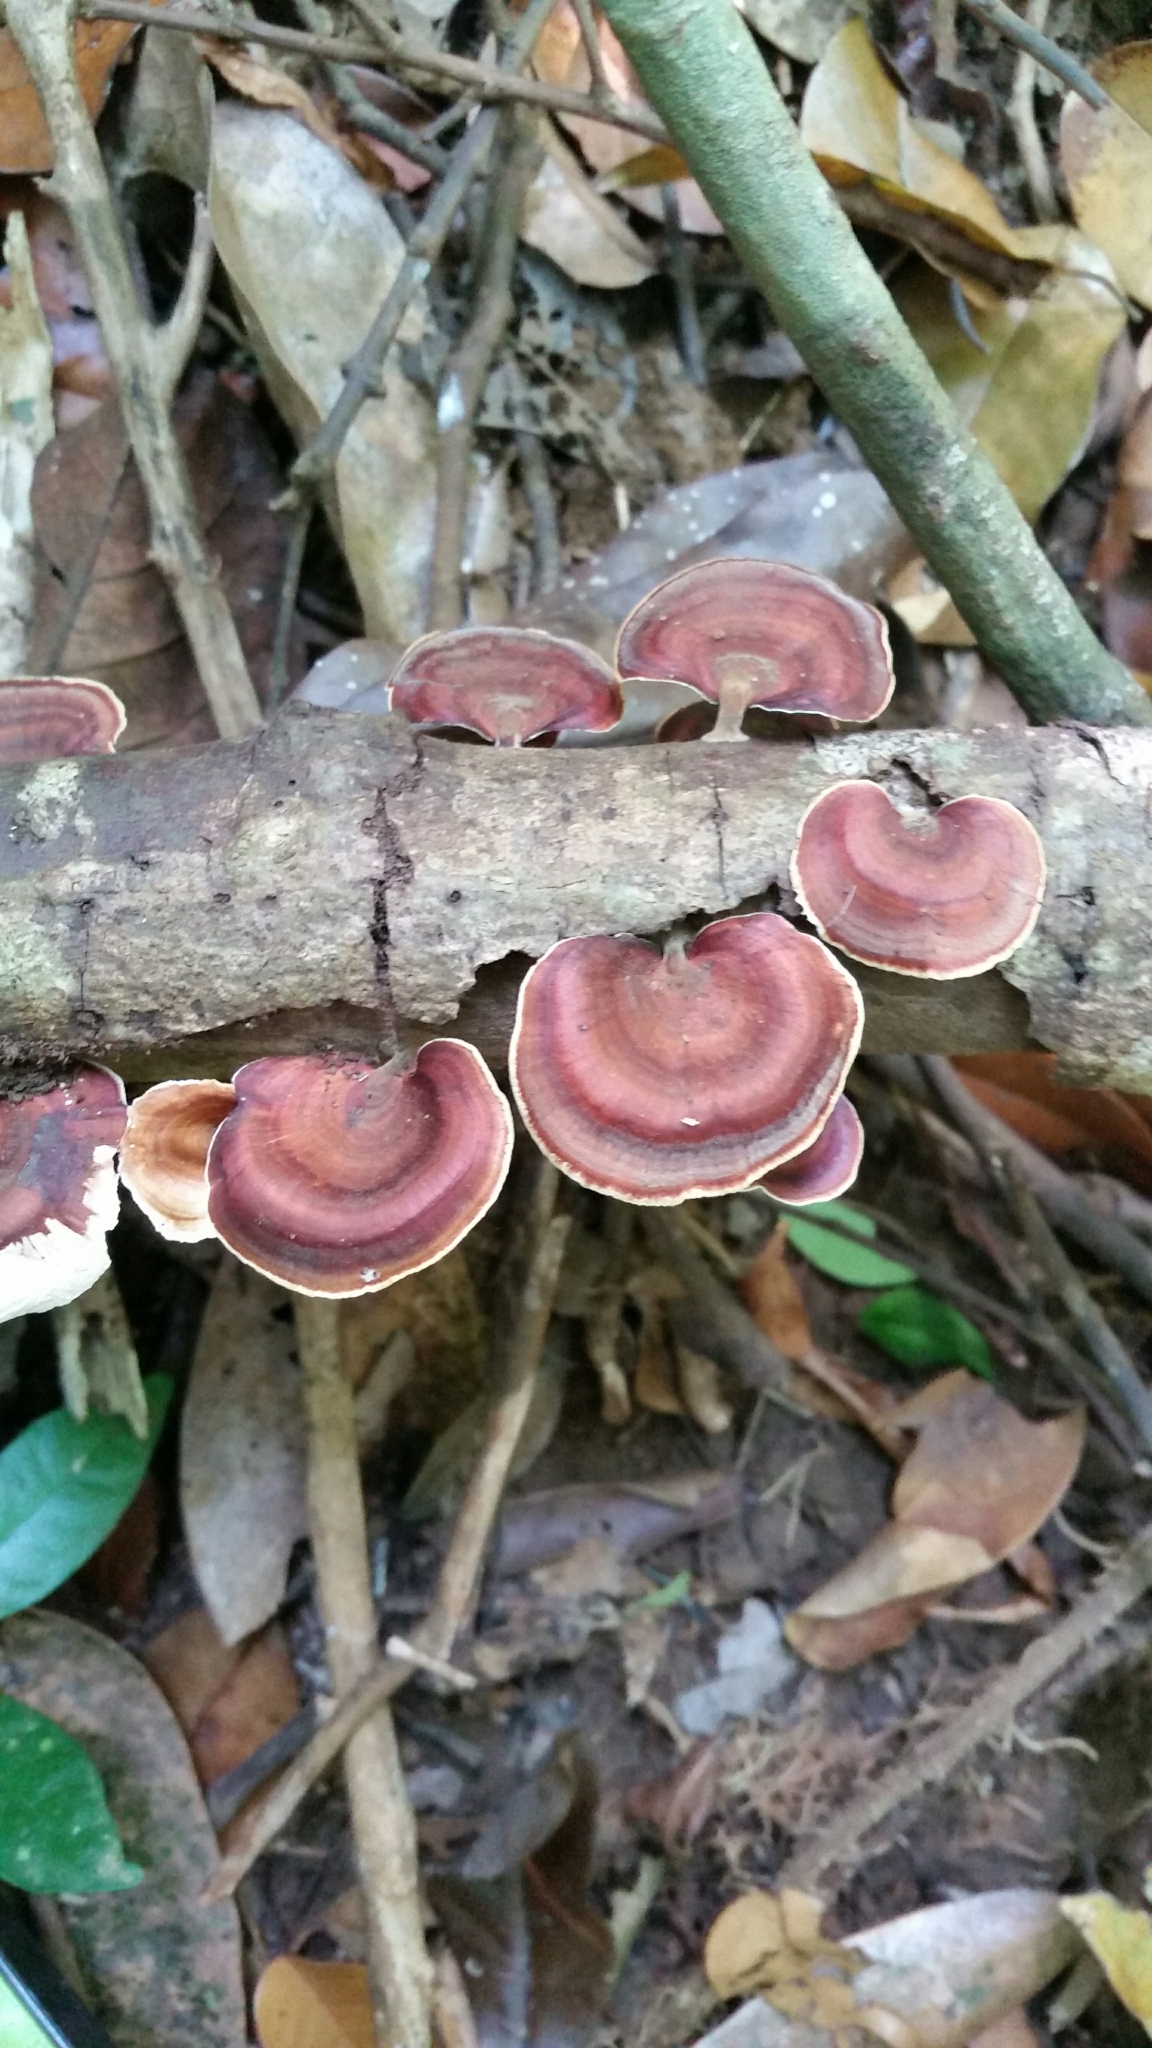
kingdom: Fungi
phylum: Basidiomycota
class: Agaricomycetes
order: Polyporales
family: Polyporaceae
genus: Microporus
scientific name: Microporus affinis
